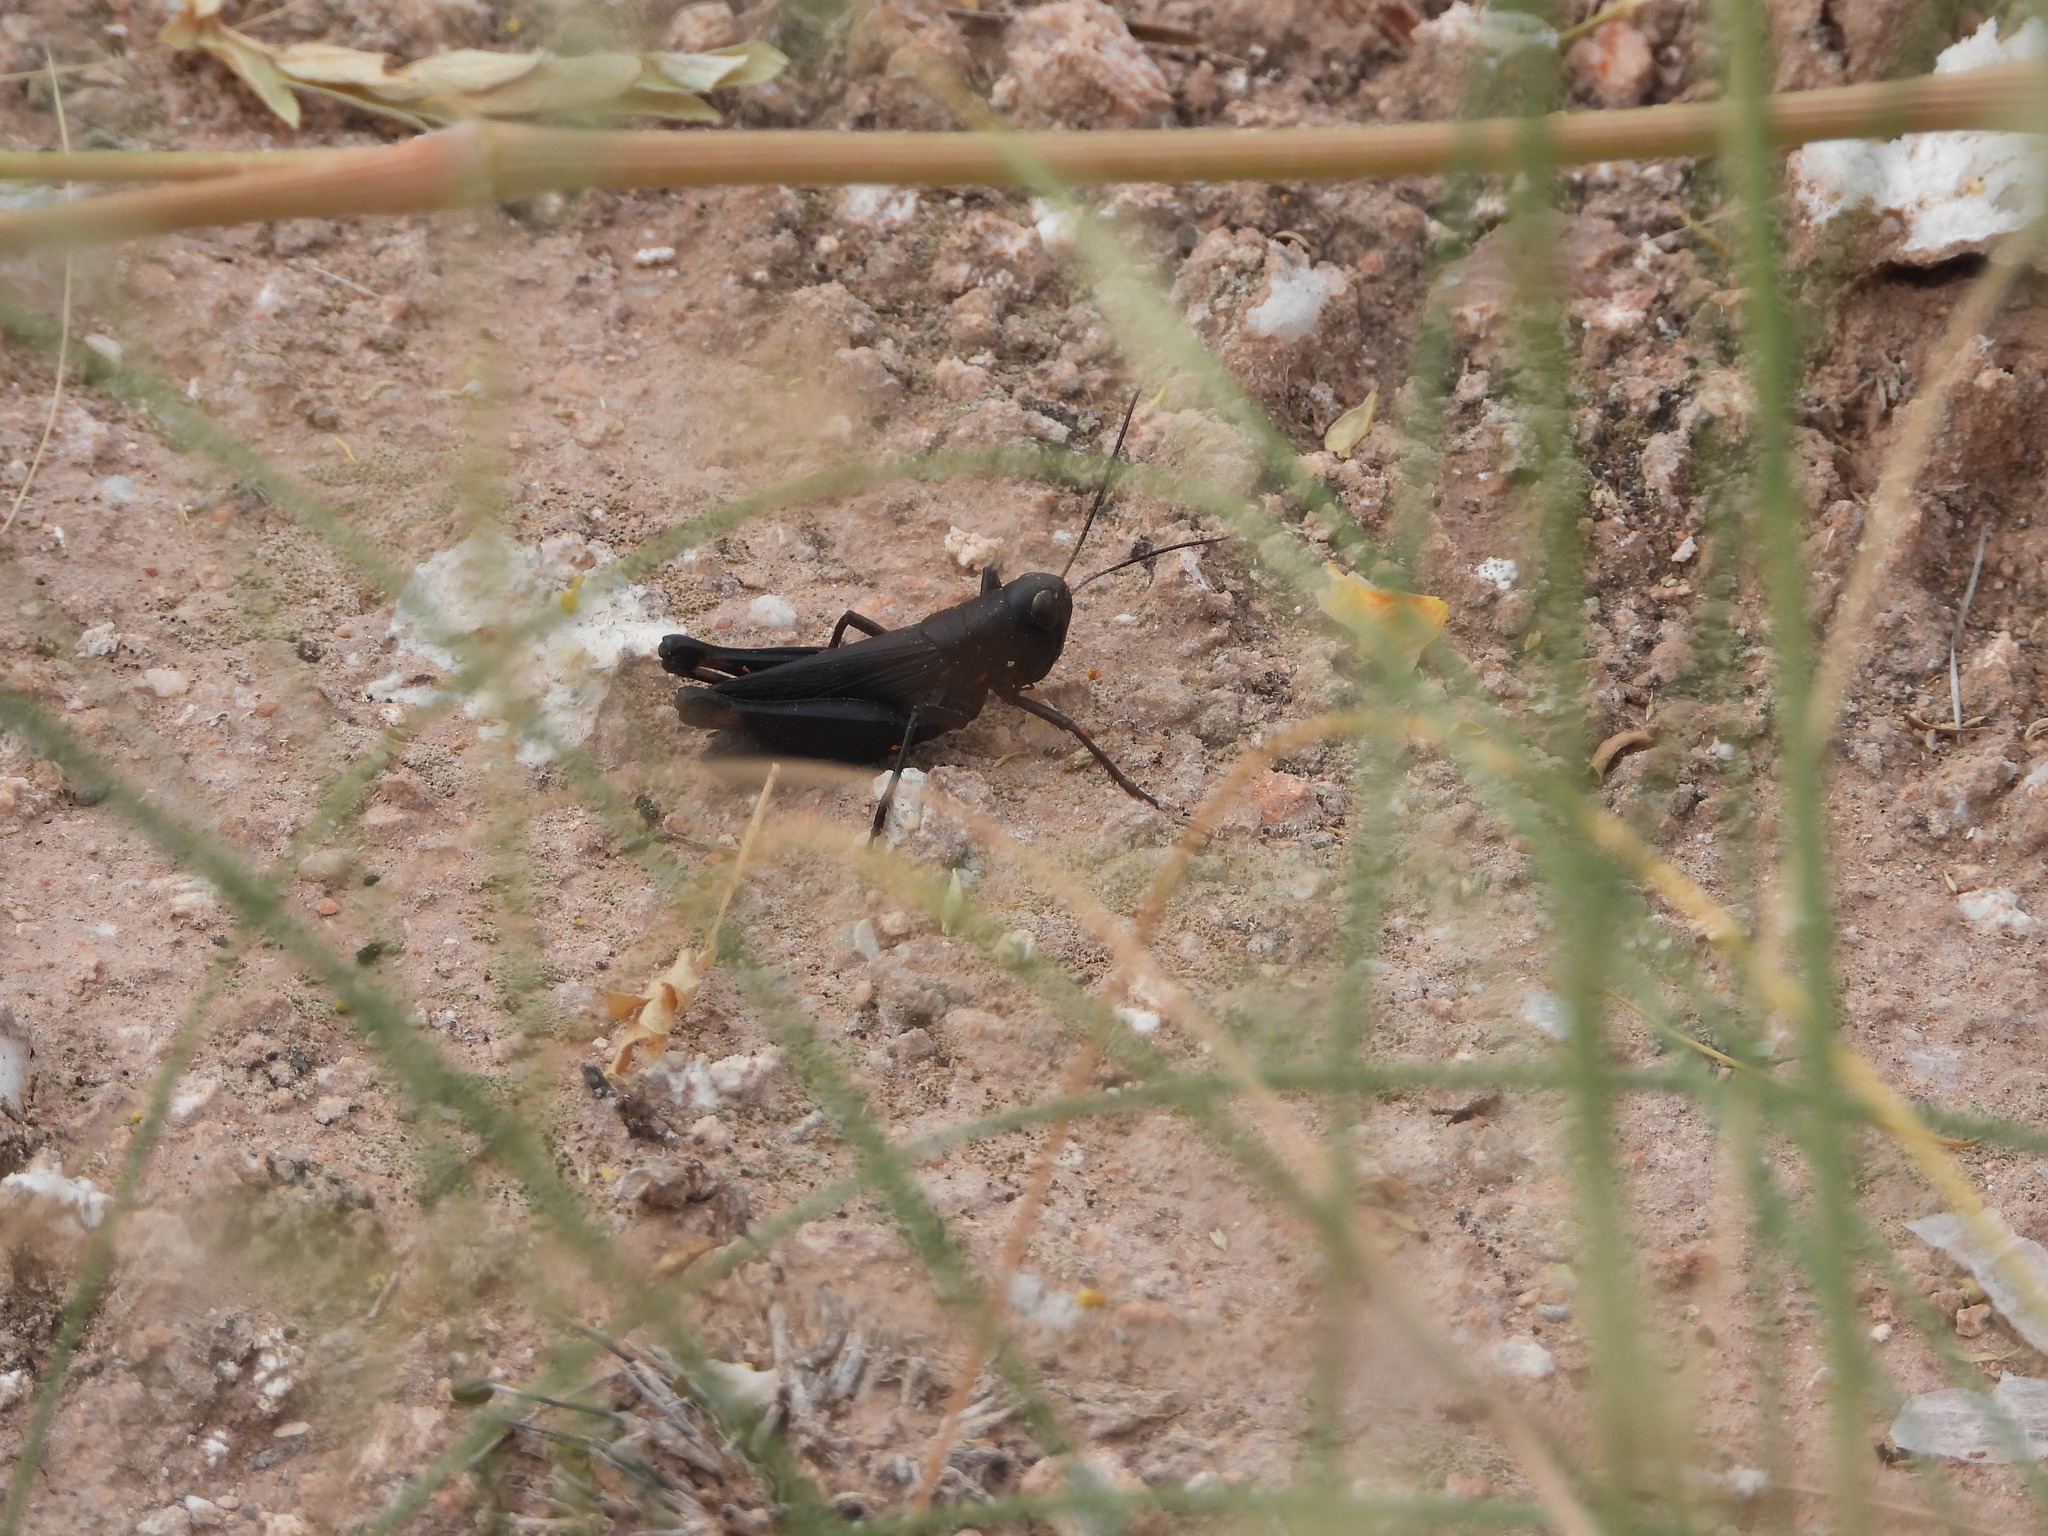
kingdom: Animalia
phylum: Arthropoda
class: Insecta
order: Orthoptera
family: Acrididae
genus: Boopedon
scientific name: Boopedon nubilum
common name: Ebony grasshopper
